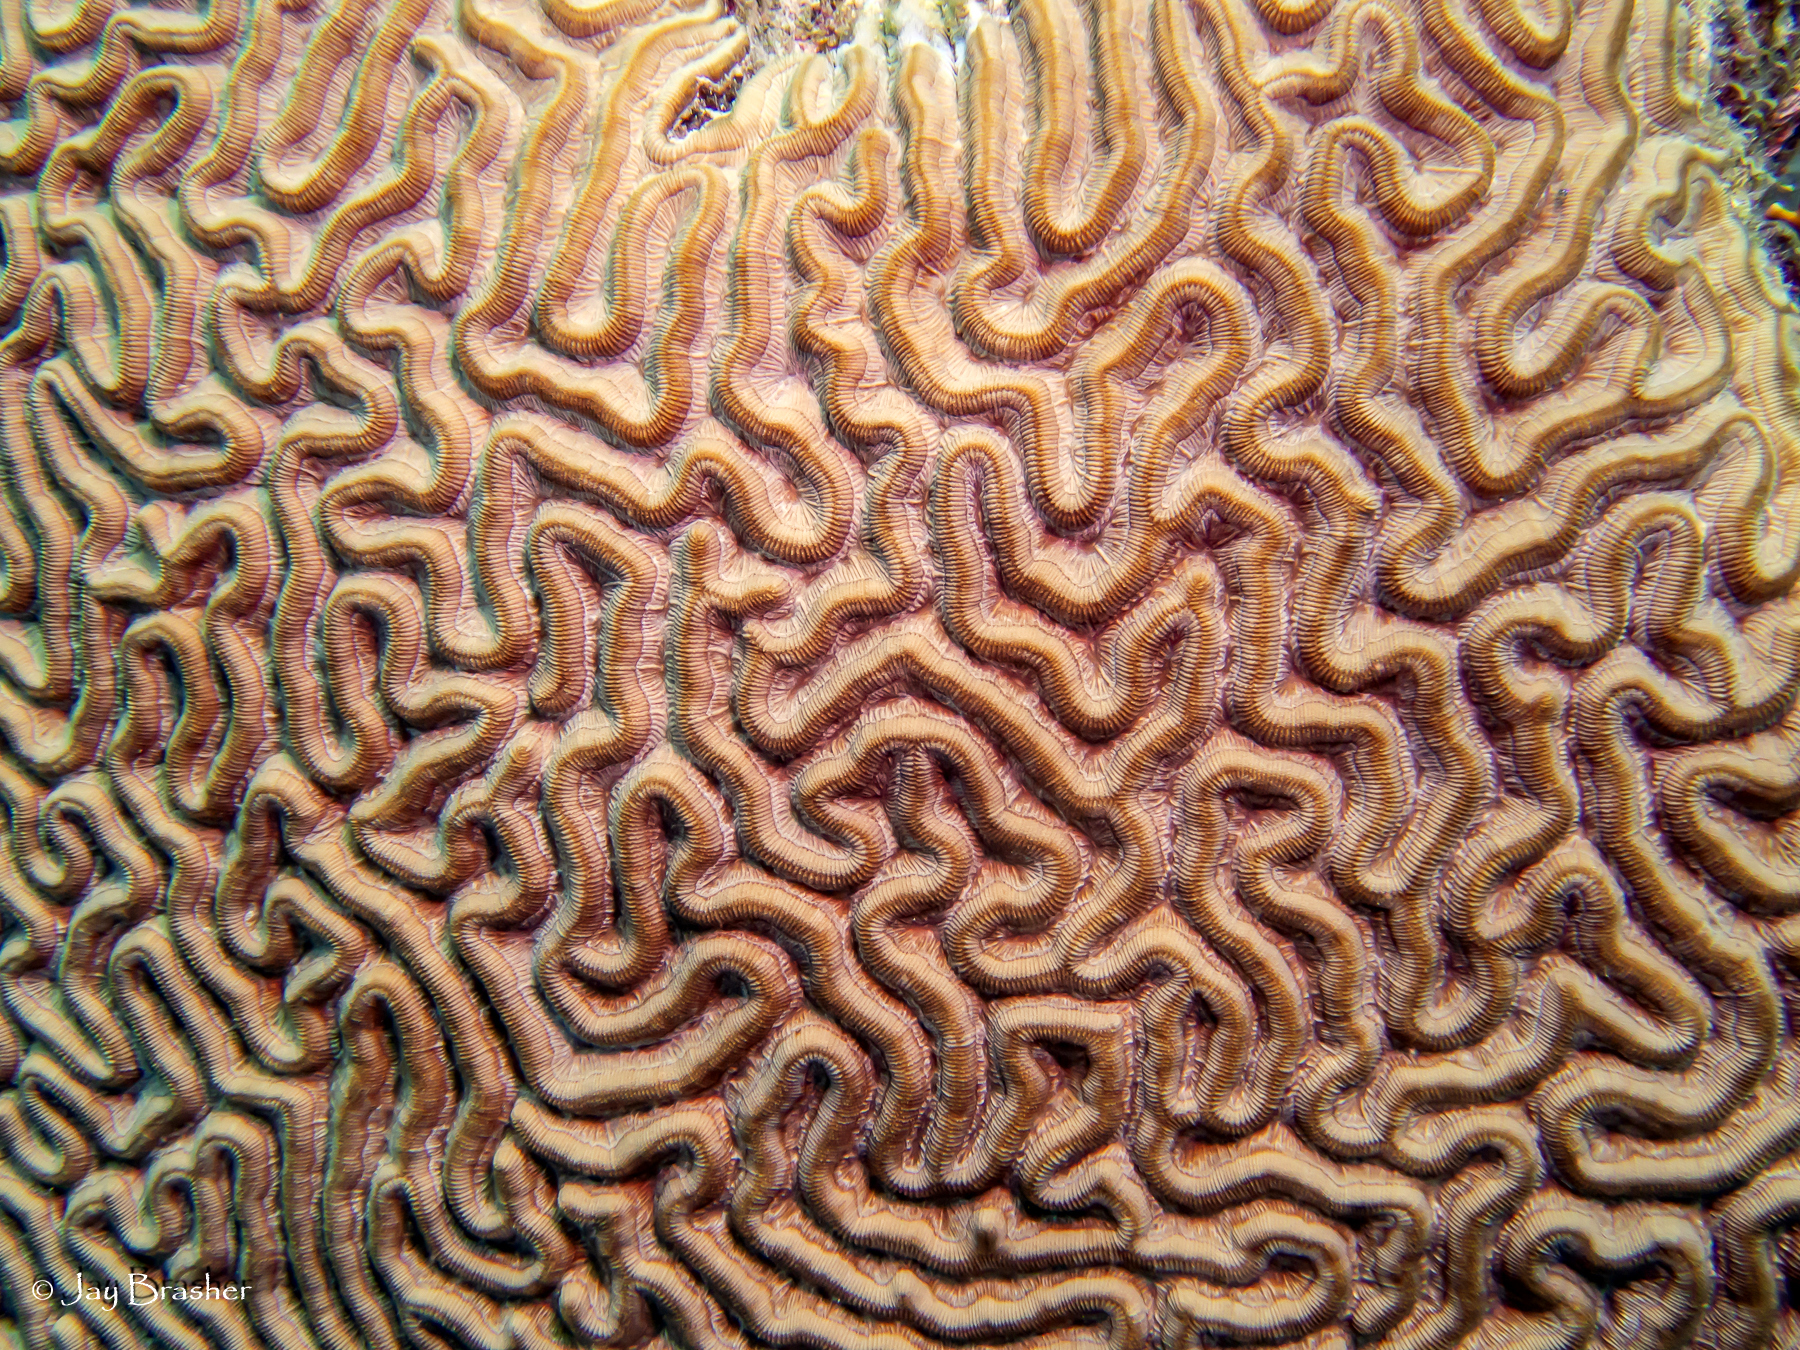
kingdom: Animalia
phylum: Cnidaria
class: Anthozoa
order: Scleractinia
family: Faviidae
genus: Colpophyllia
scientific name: Colpophyllia natans
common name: Boulder brain coral
